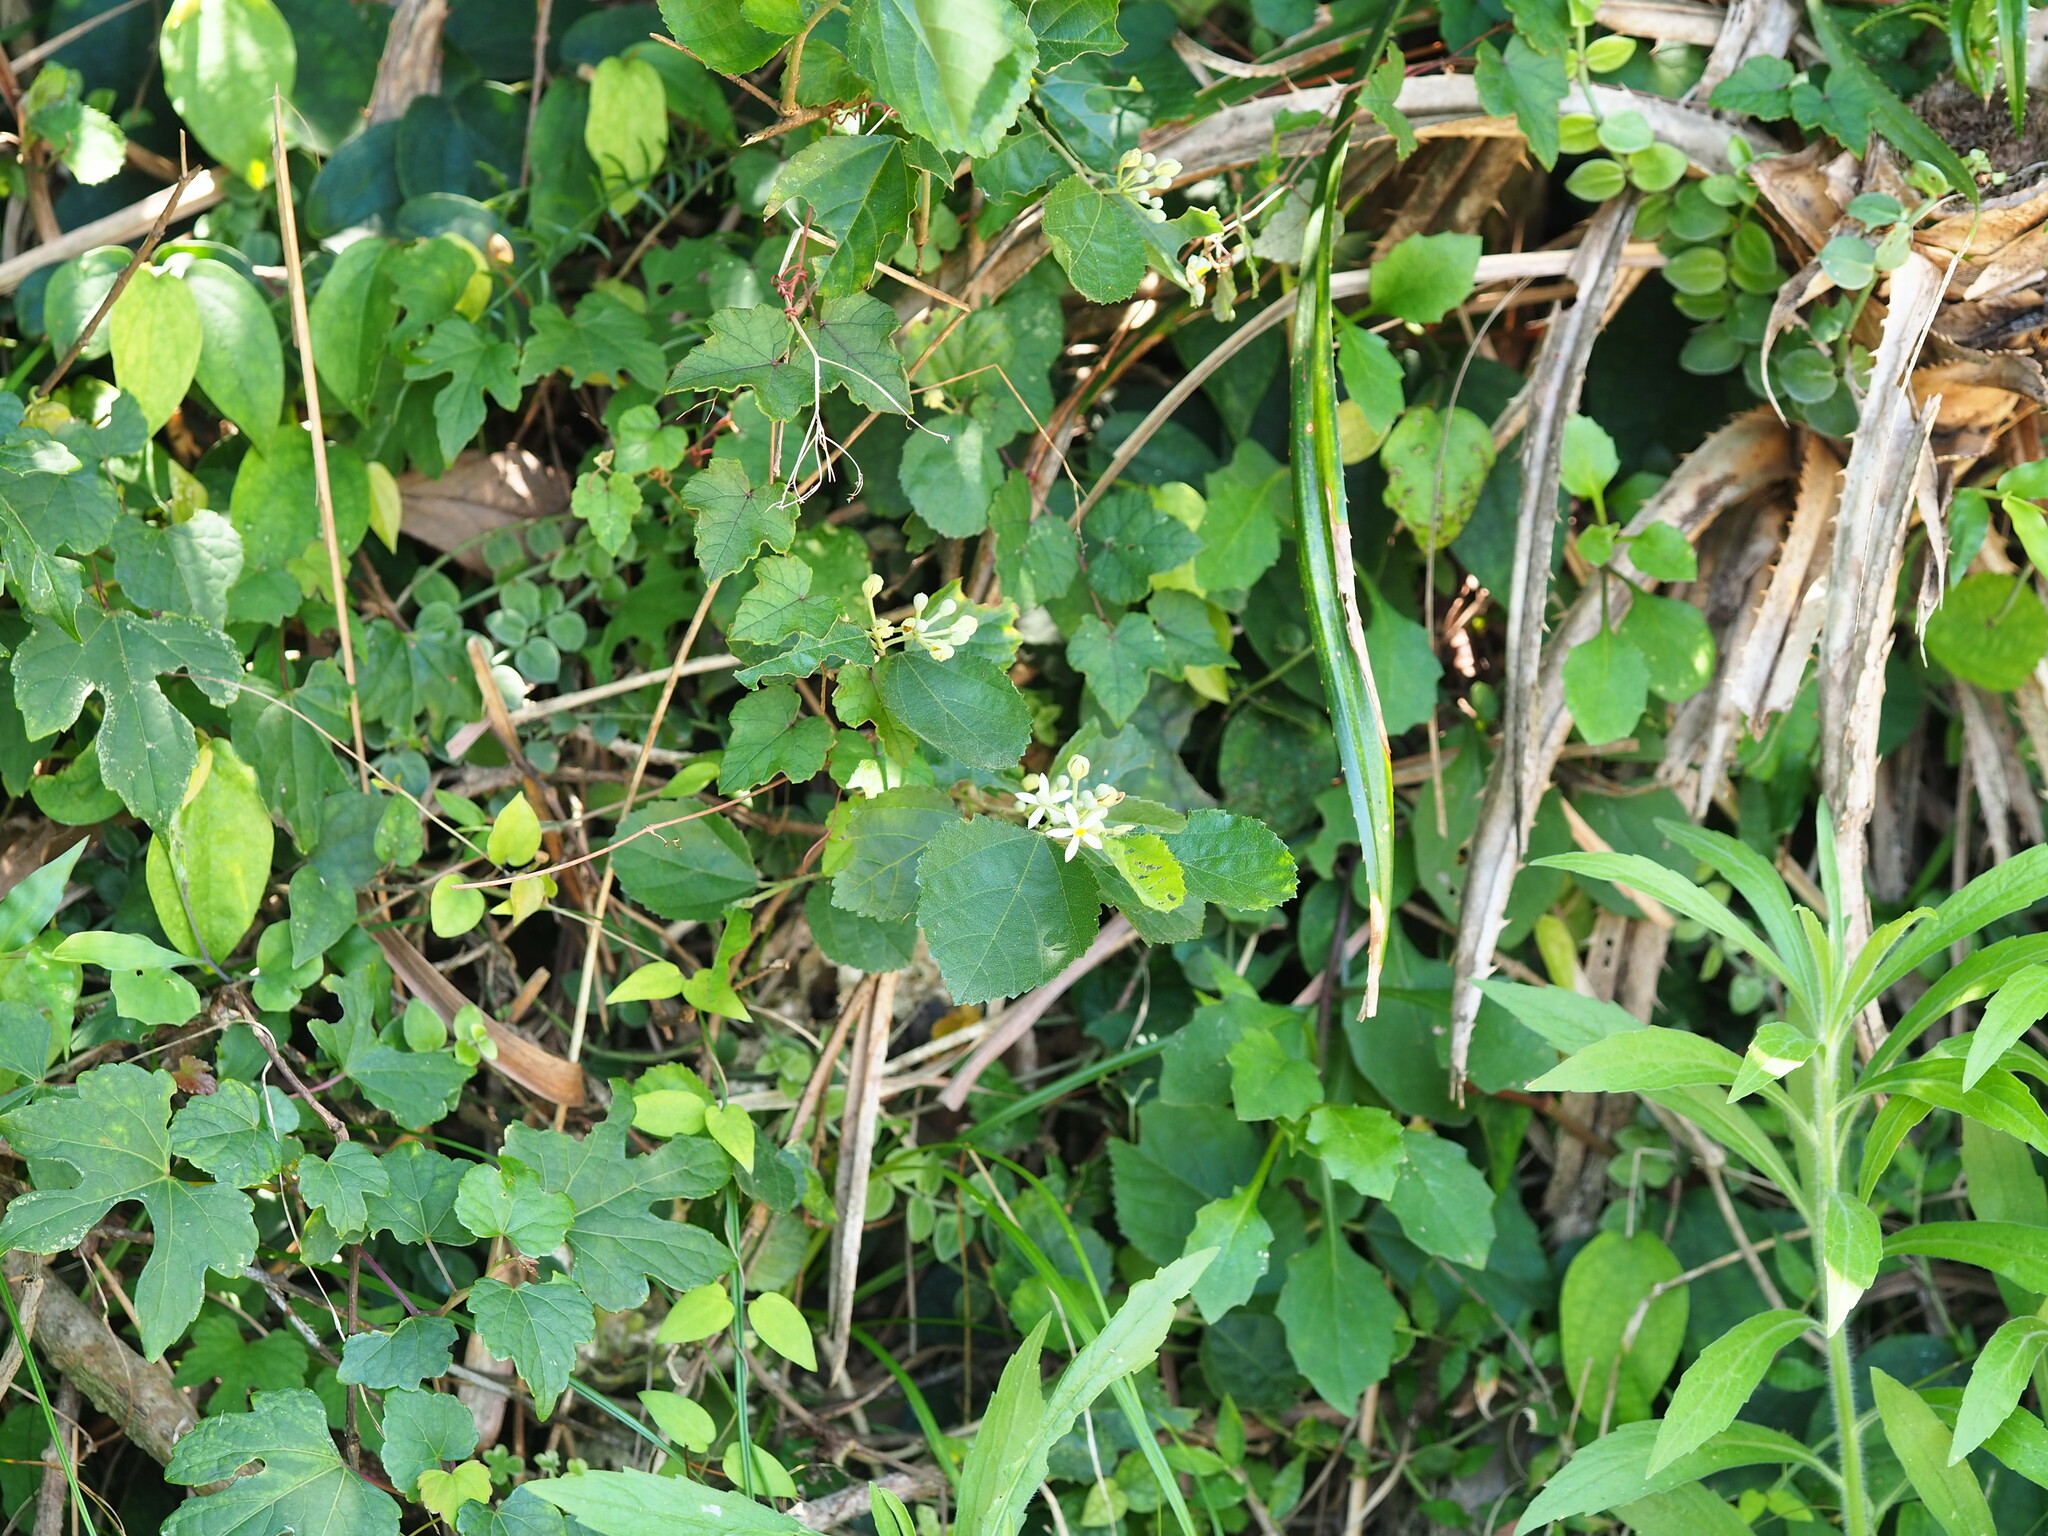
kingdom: Plantae
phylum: Tracheophyta
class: Magnoliopsida
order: Malvales
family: Malvaceae
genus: Grewia
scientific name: Grewia rhombifolia
